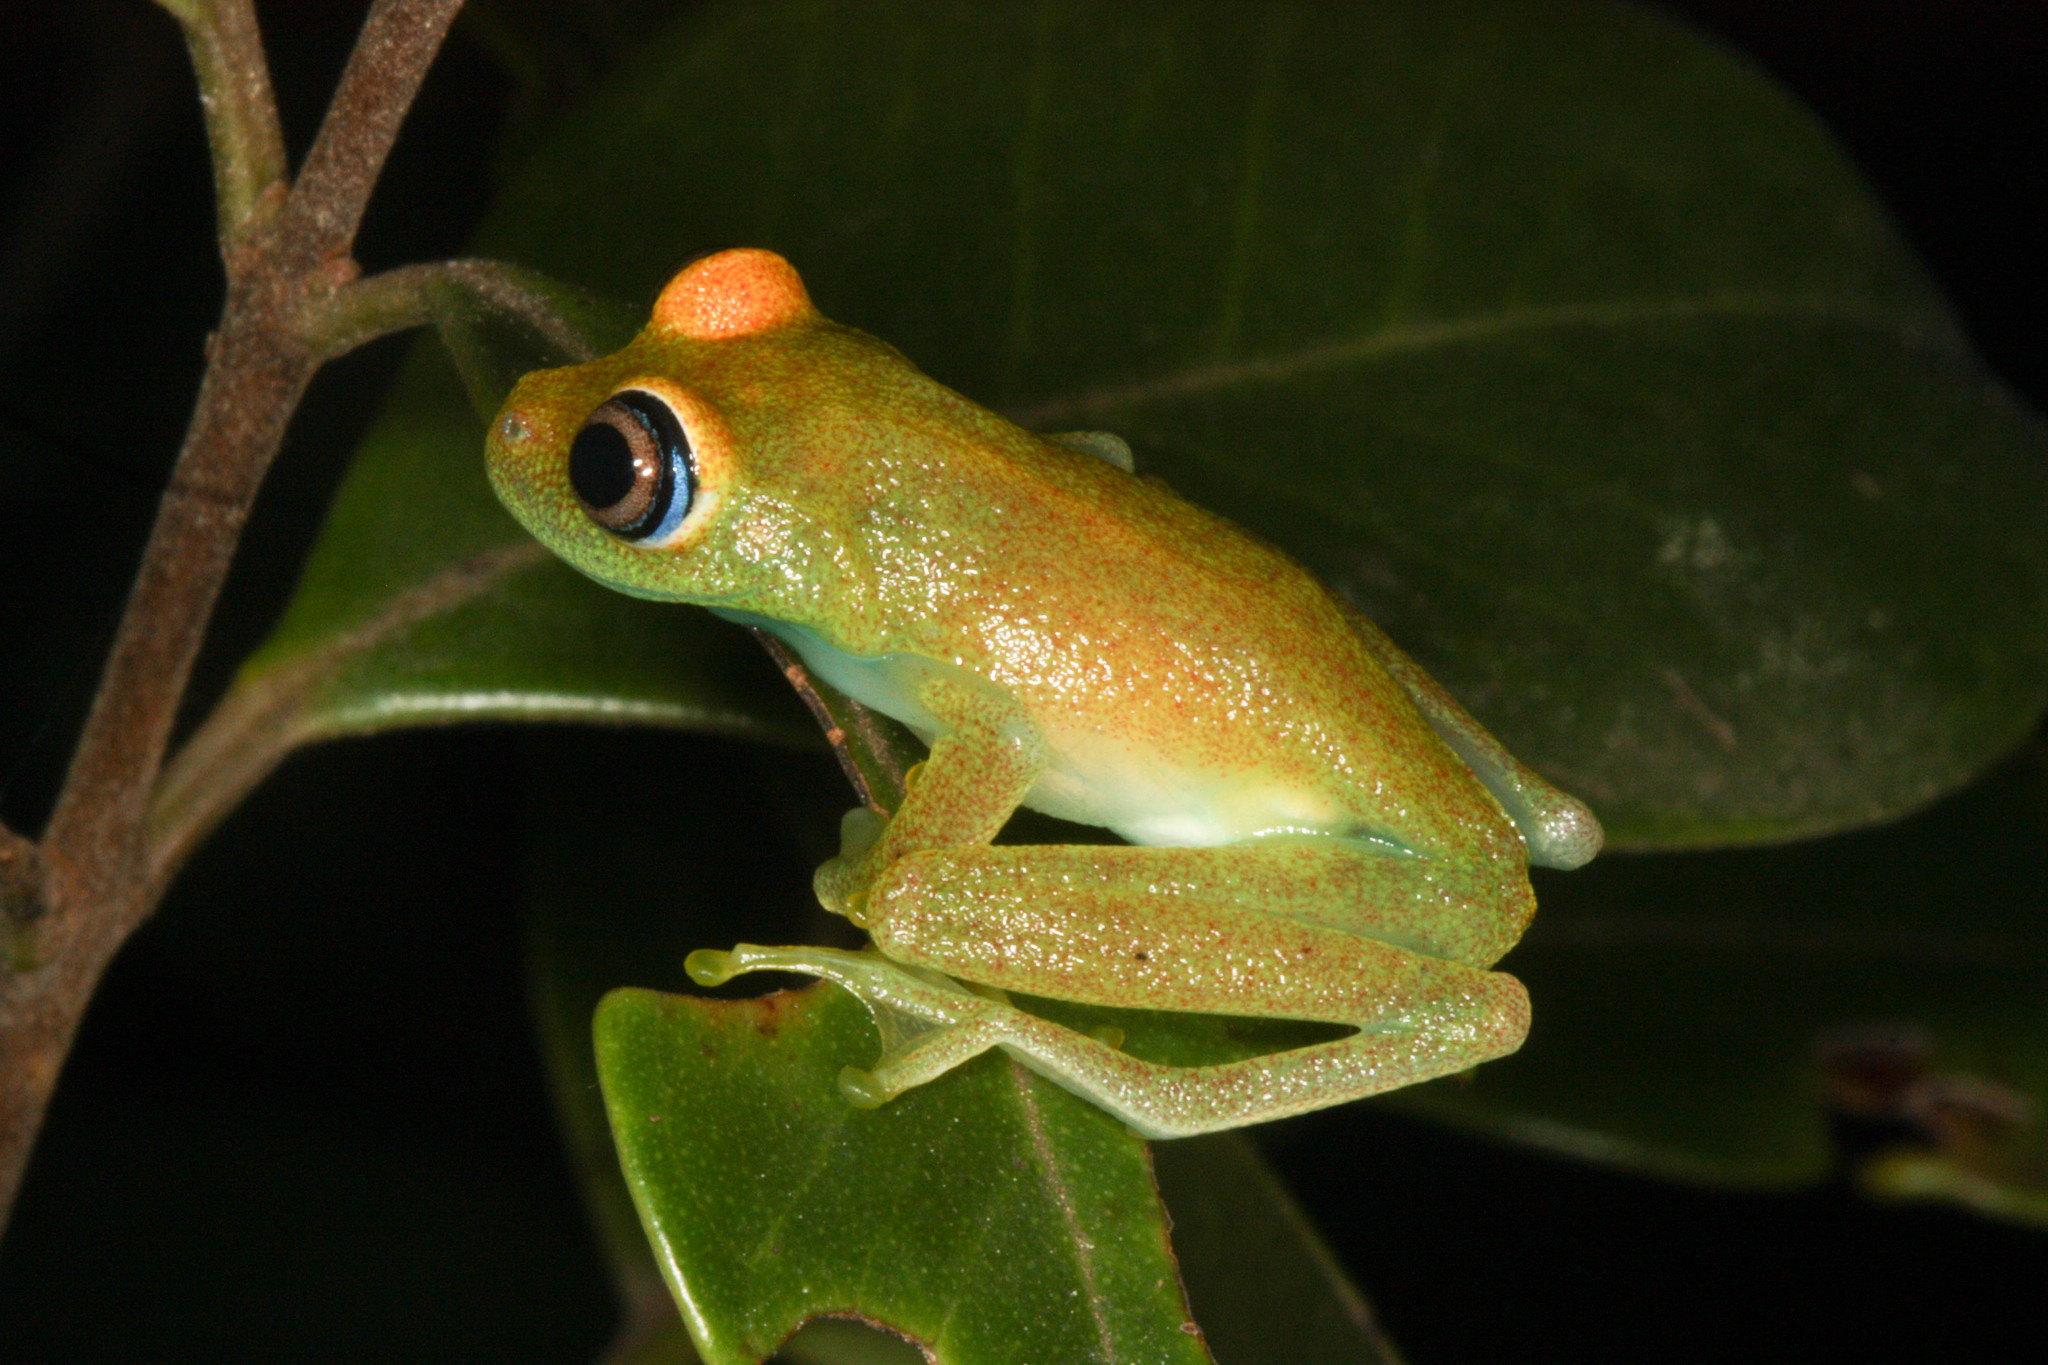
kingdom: Animalia
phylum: Chordata
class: Amphibia
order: Anura
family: Mantellidae
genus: Boophis
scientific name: Boophis viridis
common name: Green bright-eyed frog
